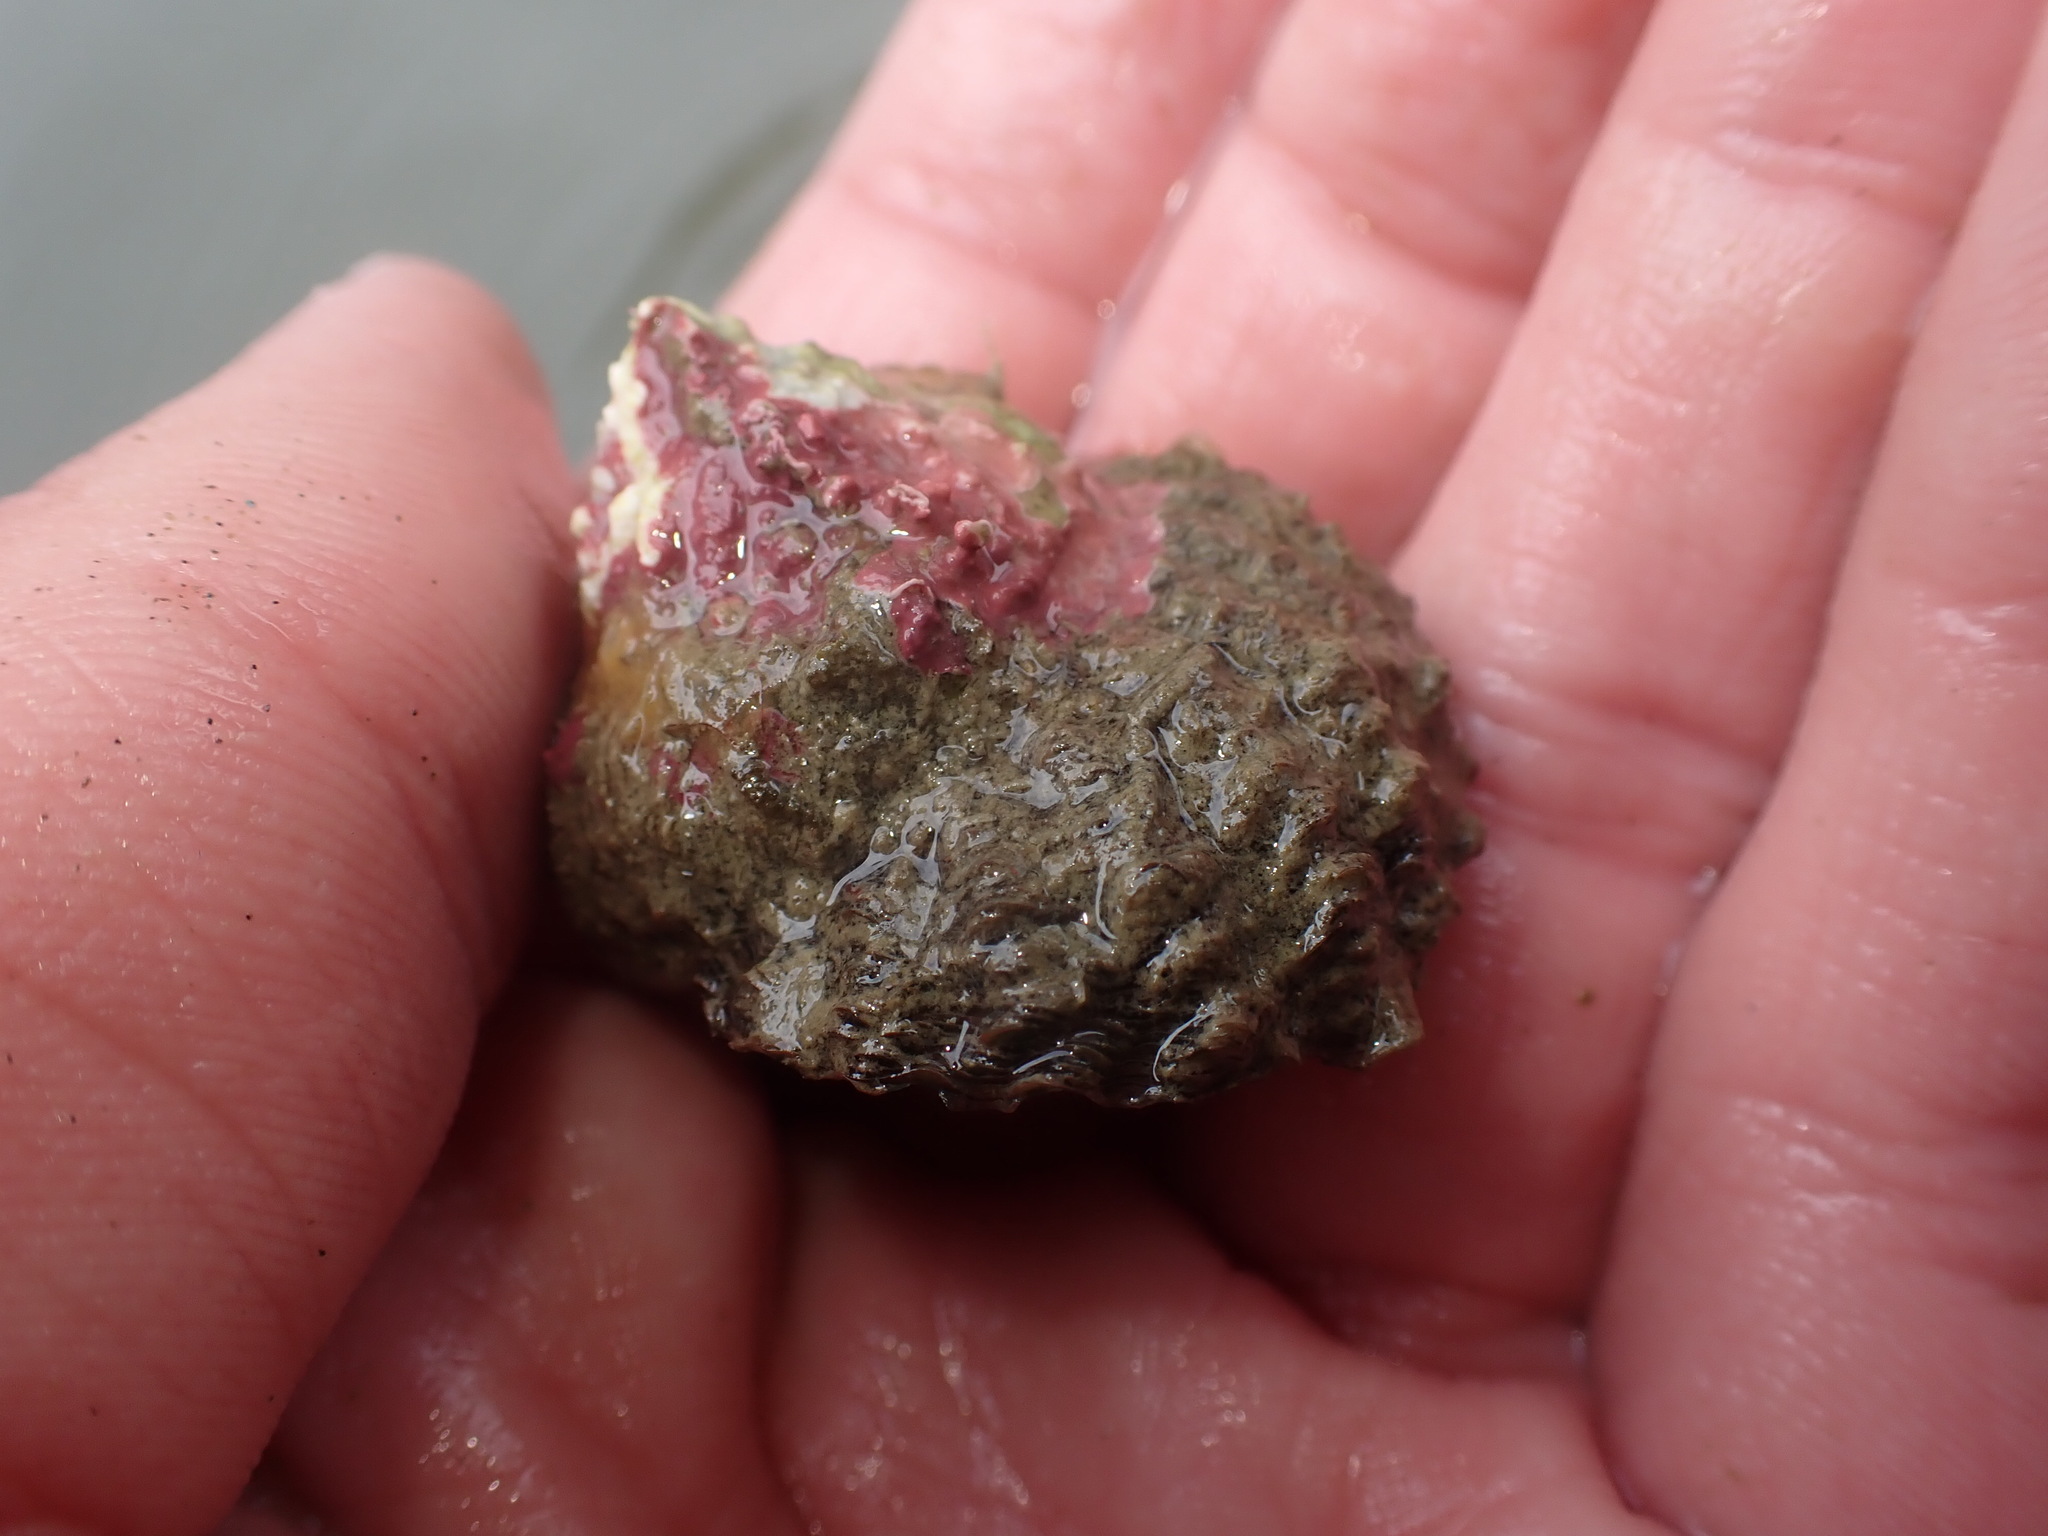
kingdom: Animalia
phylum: Mollusca
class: Gastropoda
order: Trochida
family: Turbinidae
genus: Cookia
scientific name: Cookia sulcata
